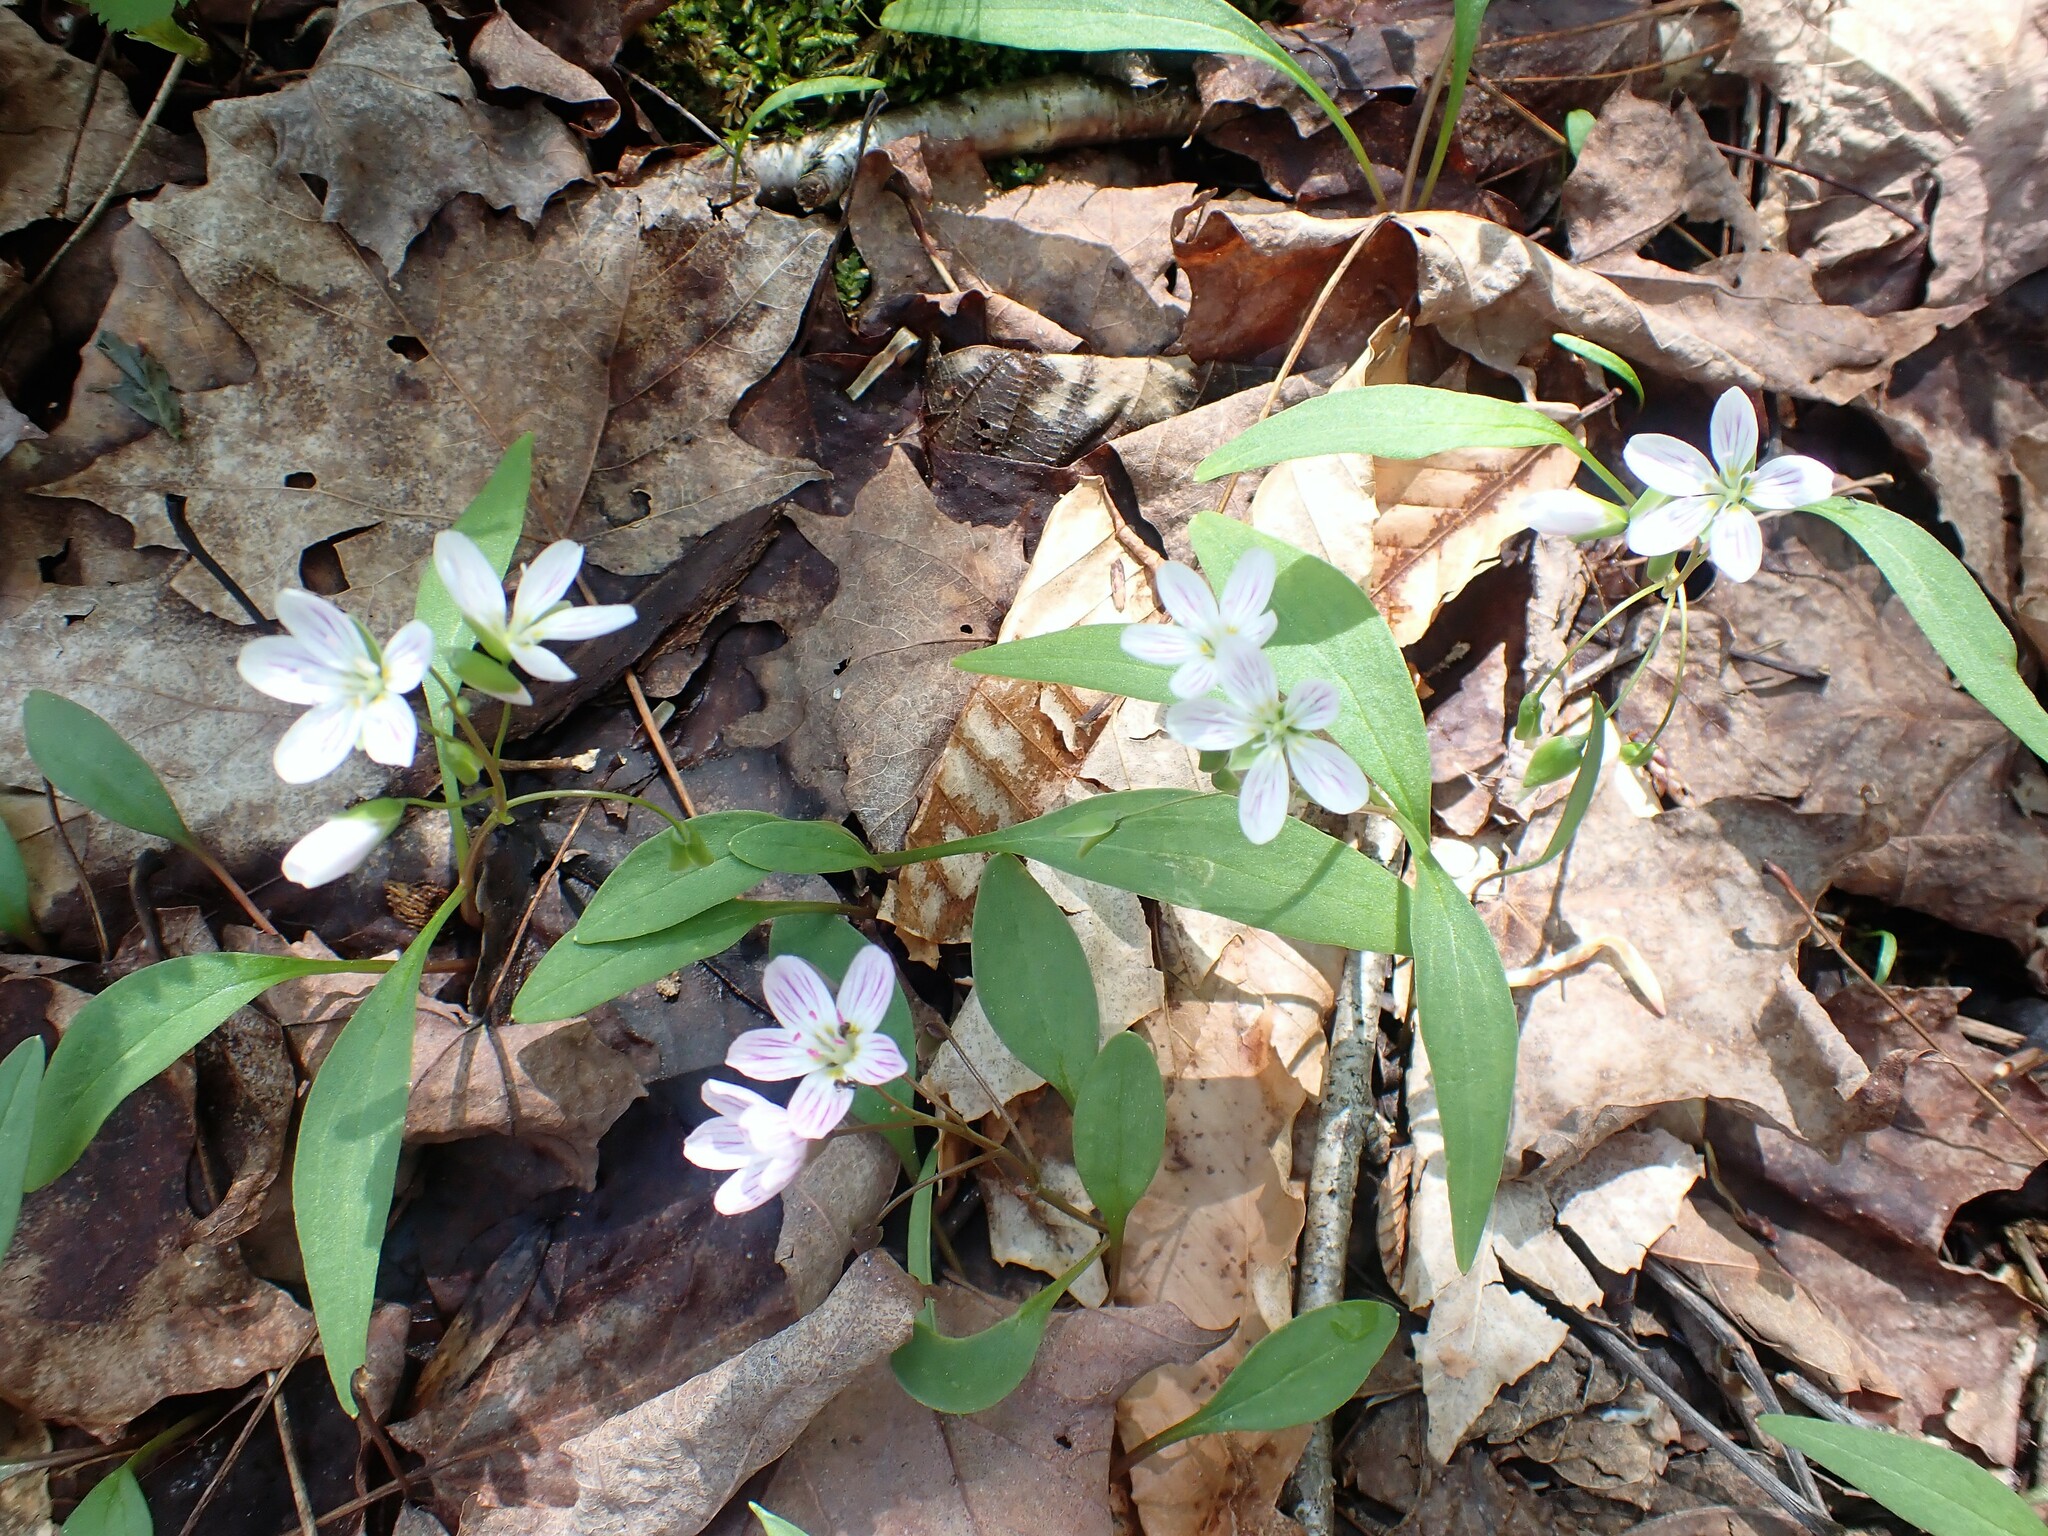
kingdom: Plantae
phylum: Tracheophyta
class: Magnoliopsida
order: Caryophyllales
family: Montiaceae
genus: Claytonia
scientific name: Claytonia caroliniana
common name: Carolina spring beauty
